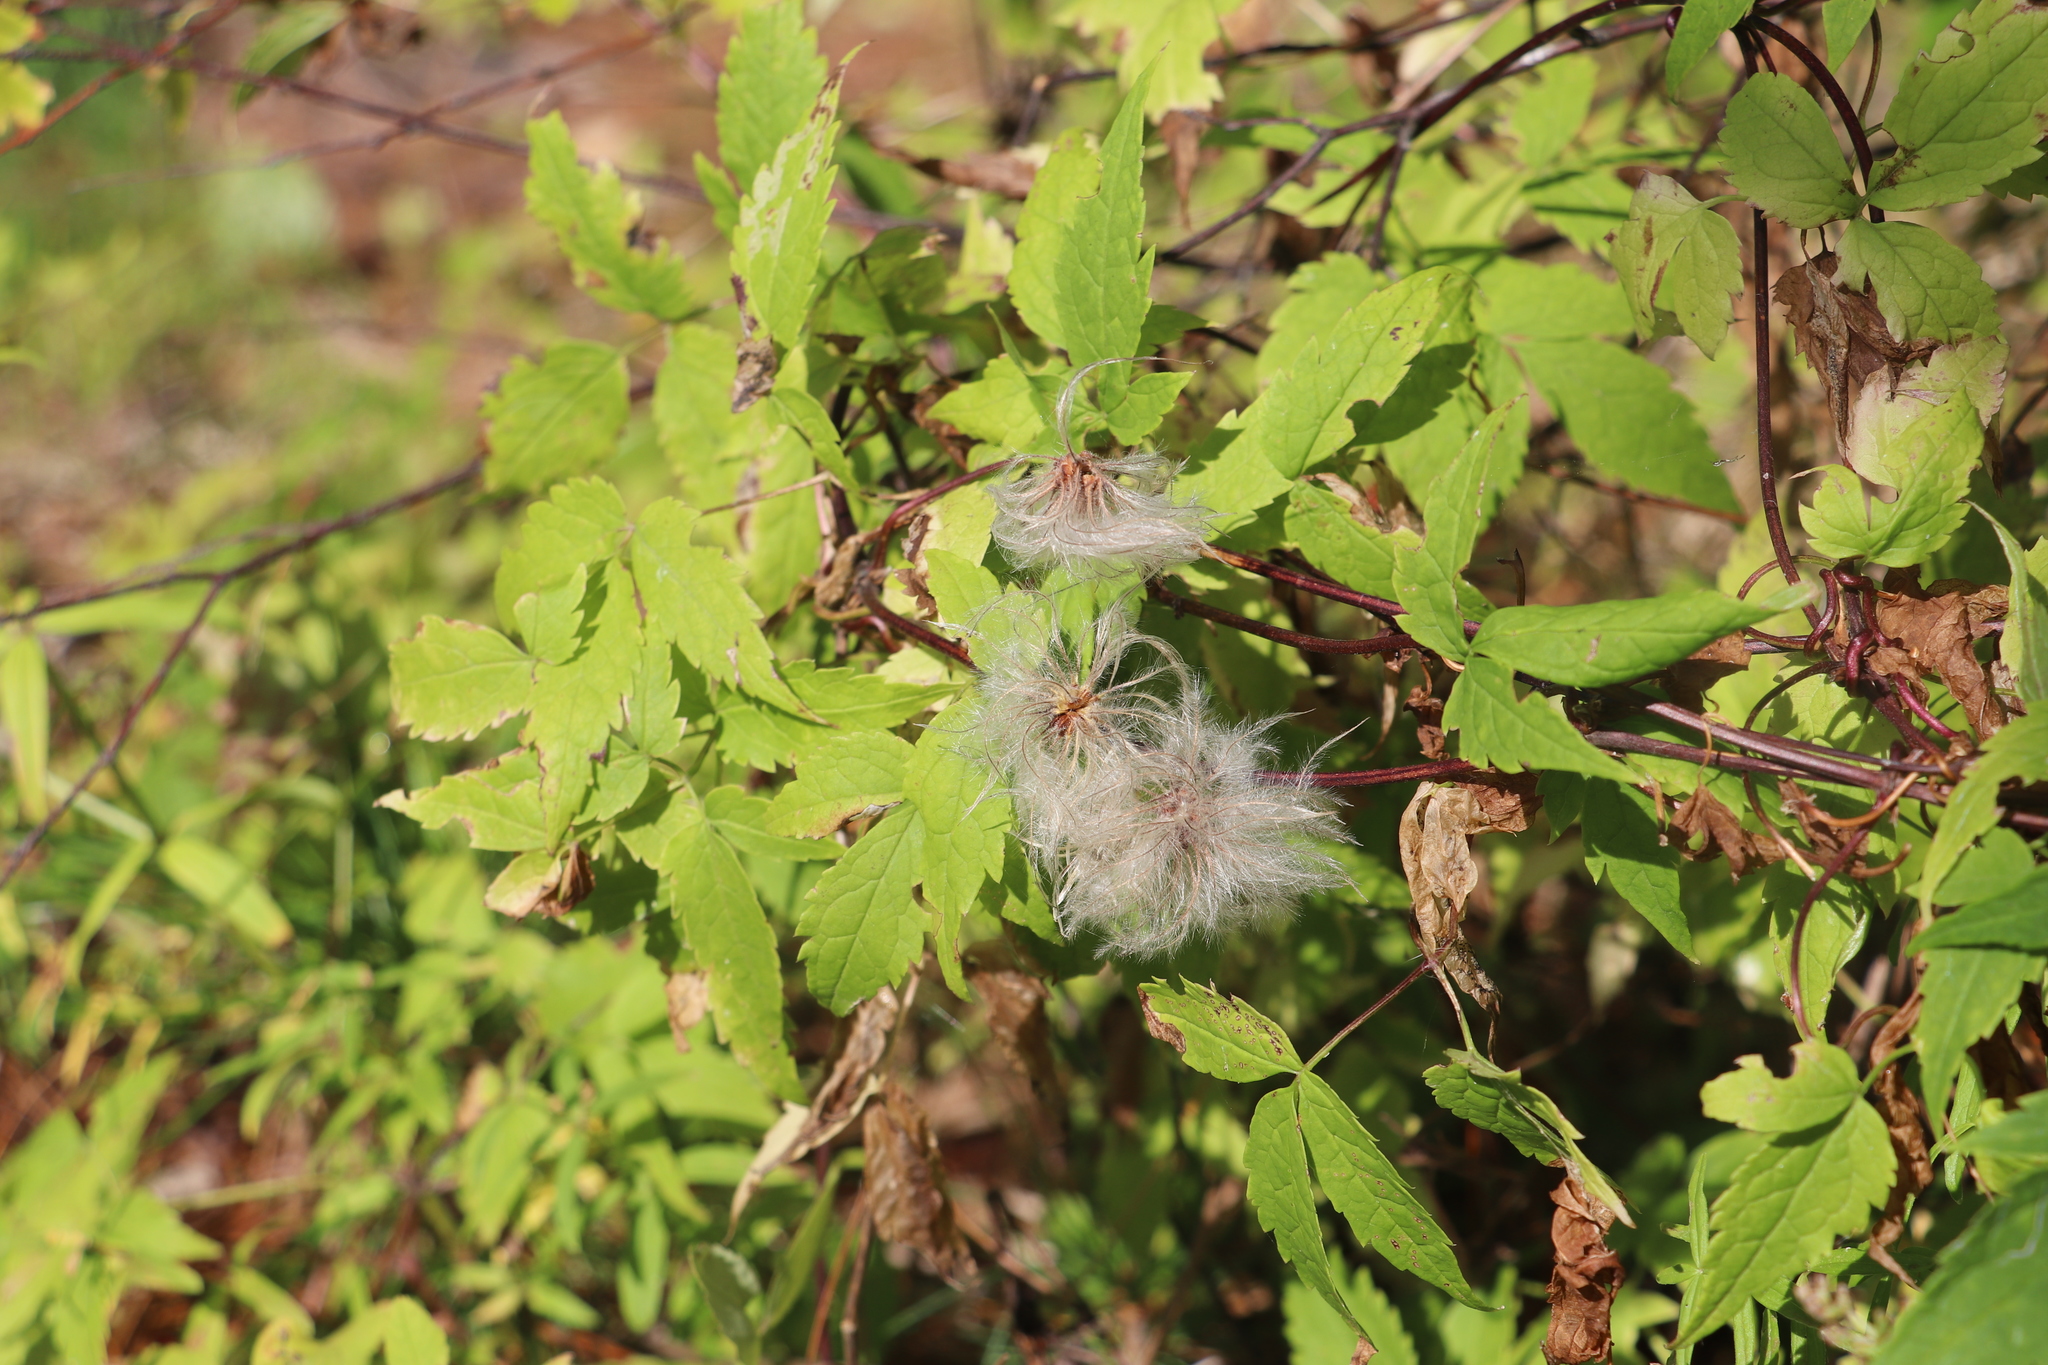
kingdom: Plantae
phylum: Tracheophyta
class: Magnoliopsida
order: Ranunculales
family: Ranunculaceae
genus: Clematis
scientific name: Clematis sibirica
